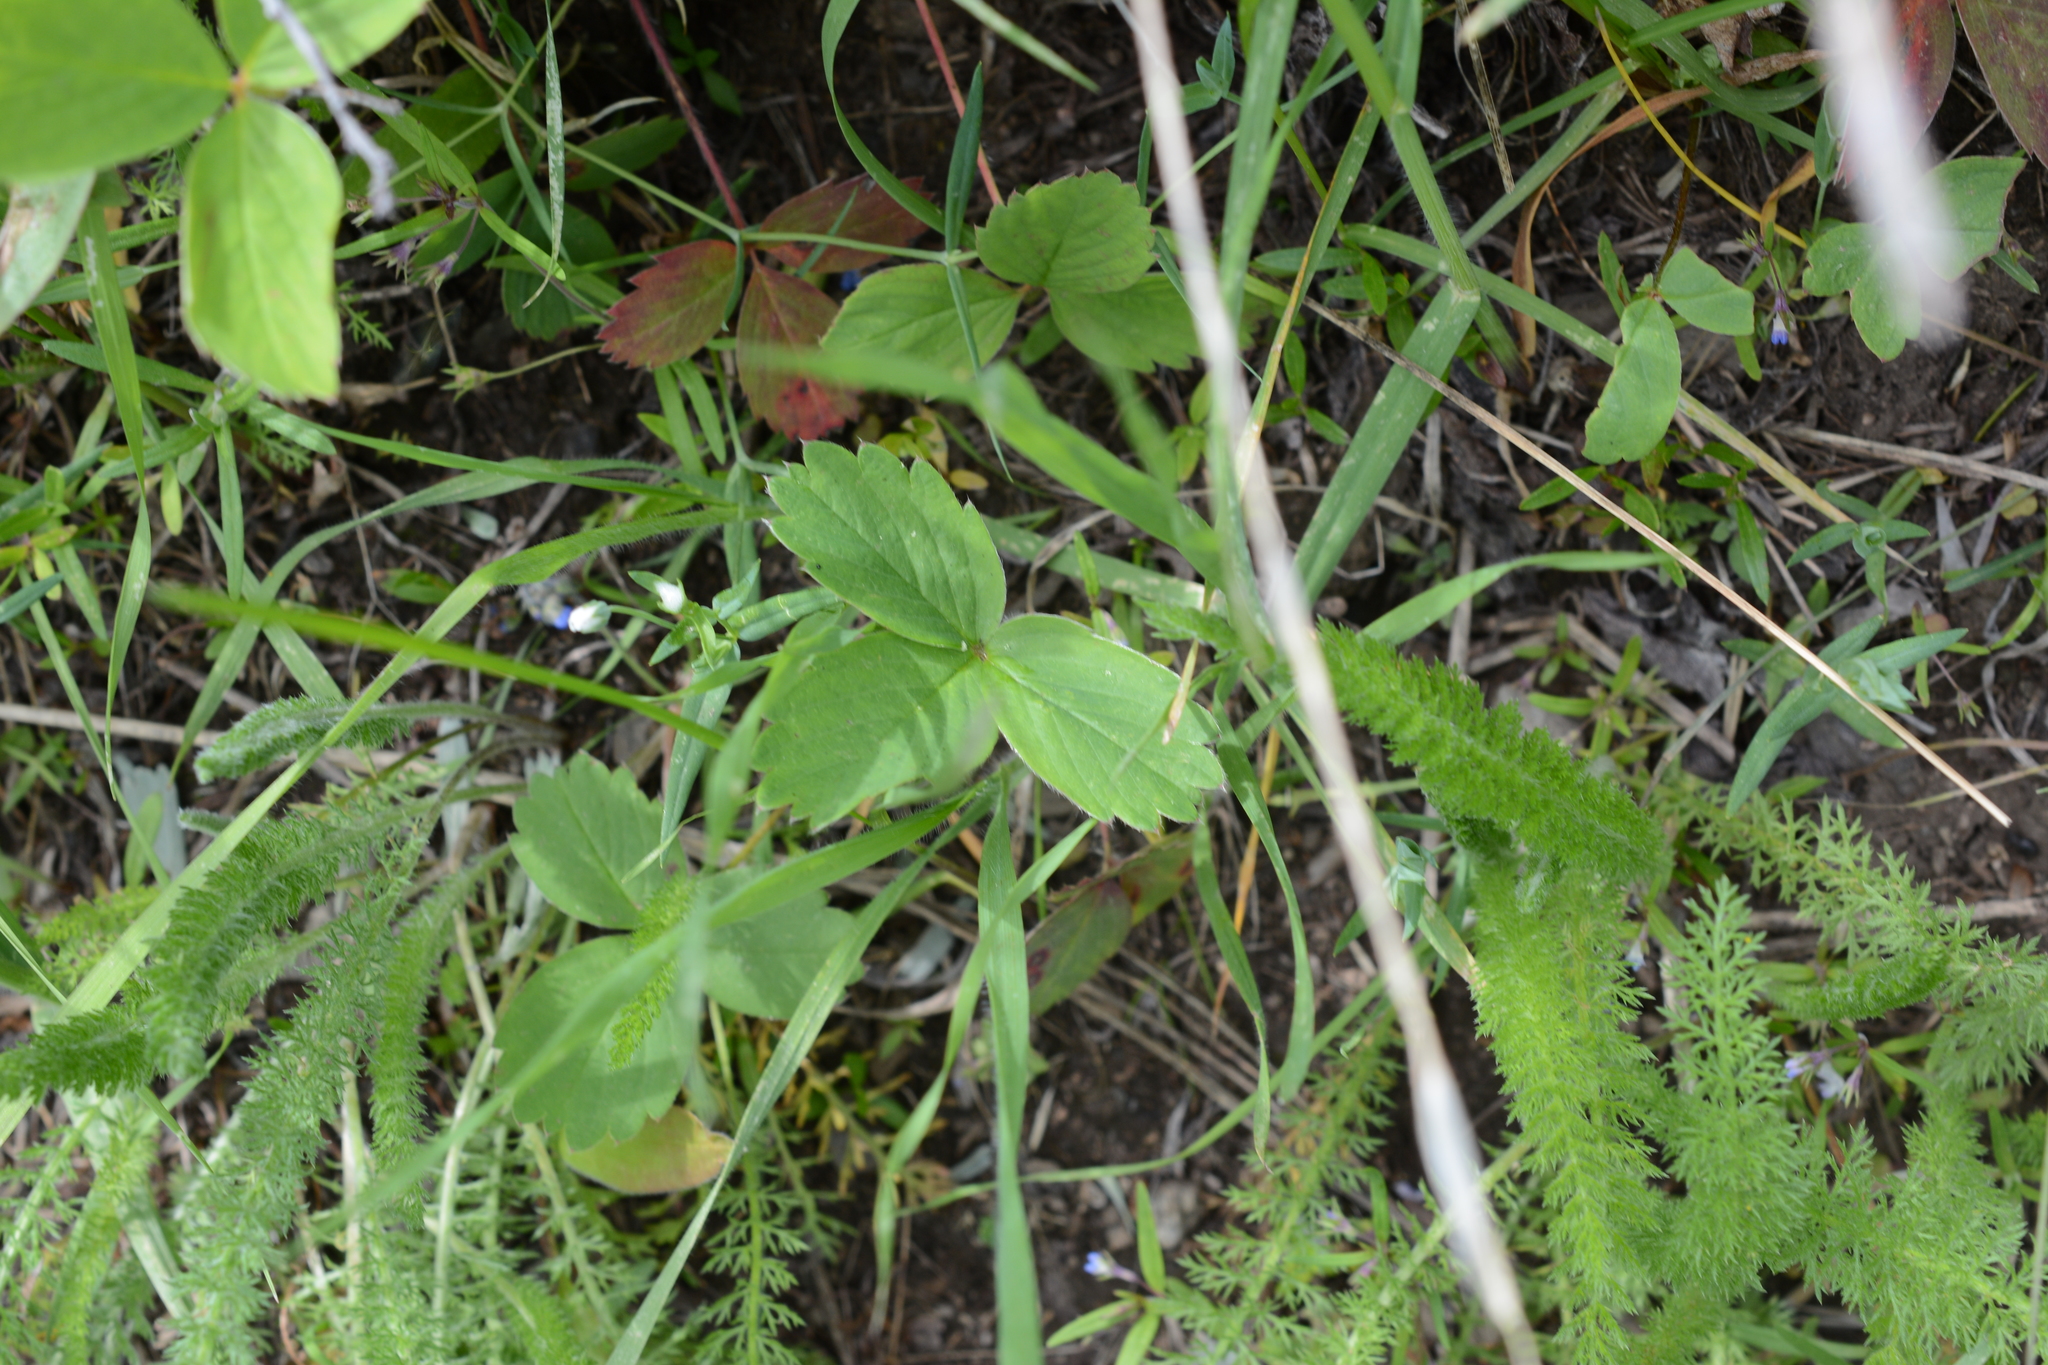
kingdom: Plantae
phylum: Tracheophyta
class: Magnoliopsida
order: Rosales
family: Rosaceae
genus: Fragaria
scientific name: Fragaria virginiana
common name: Thickleaved wild strawberry
